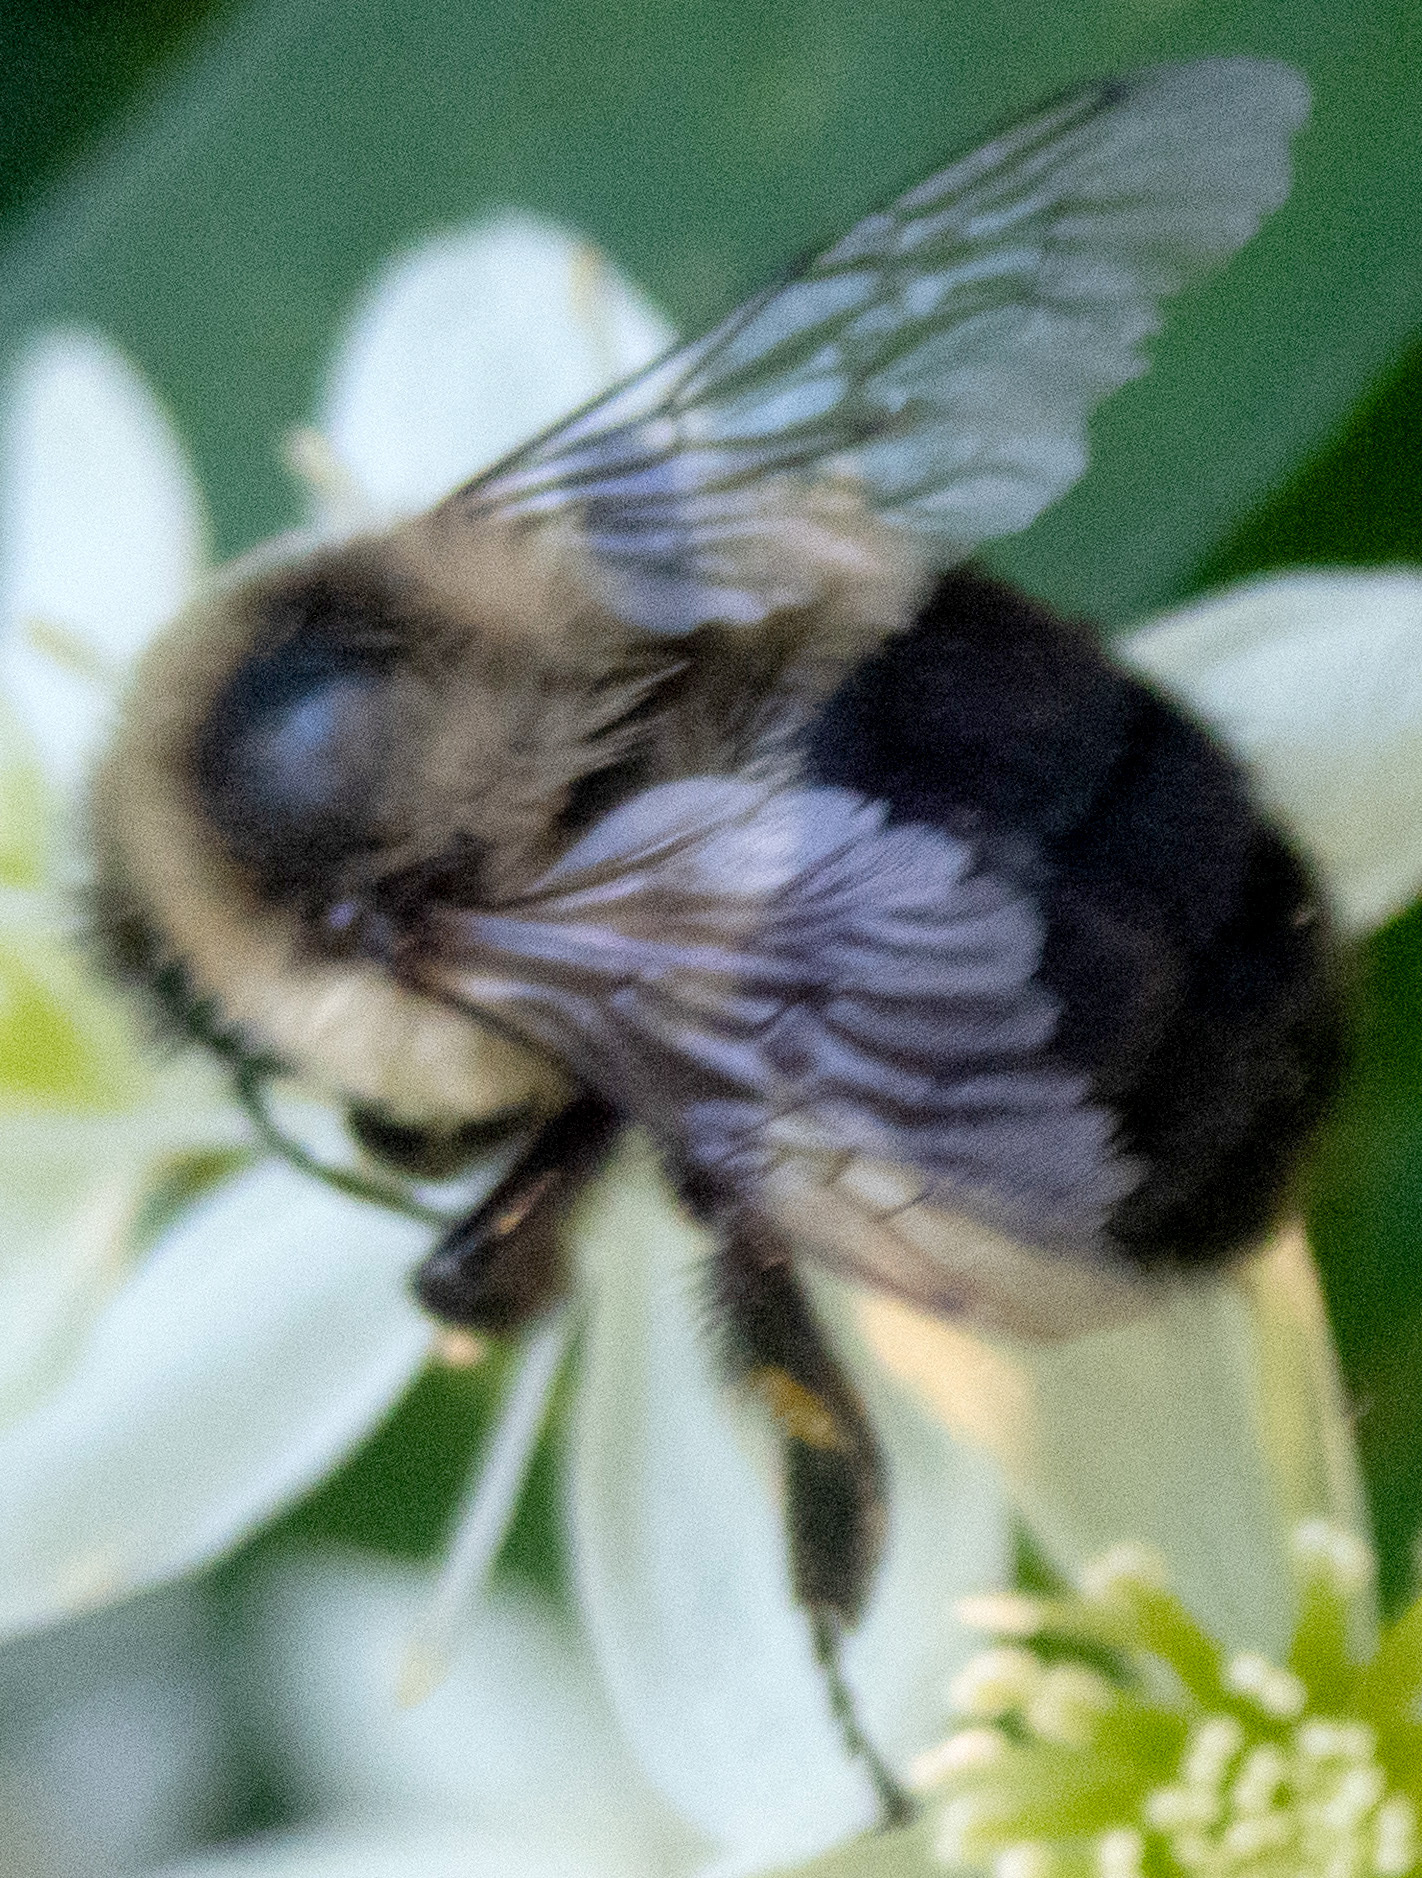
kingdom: Animalia
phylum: Arthropoda
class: Insecta
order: Hymenoptera
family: Apidae
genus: Bombus
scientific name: Bombus impatiens
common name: Common eastern bumble bee
